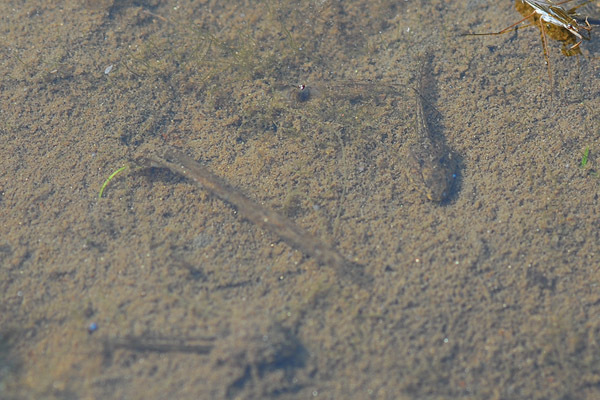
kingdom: Animalia
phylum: Chordata
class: Amphibia
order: Anura
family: Ranidae
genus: Rana
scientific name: Rana coreana
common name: Korean brown frog
